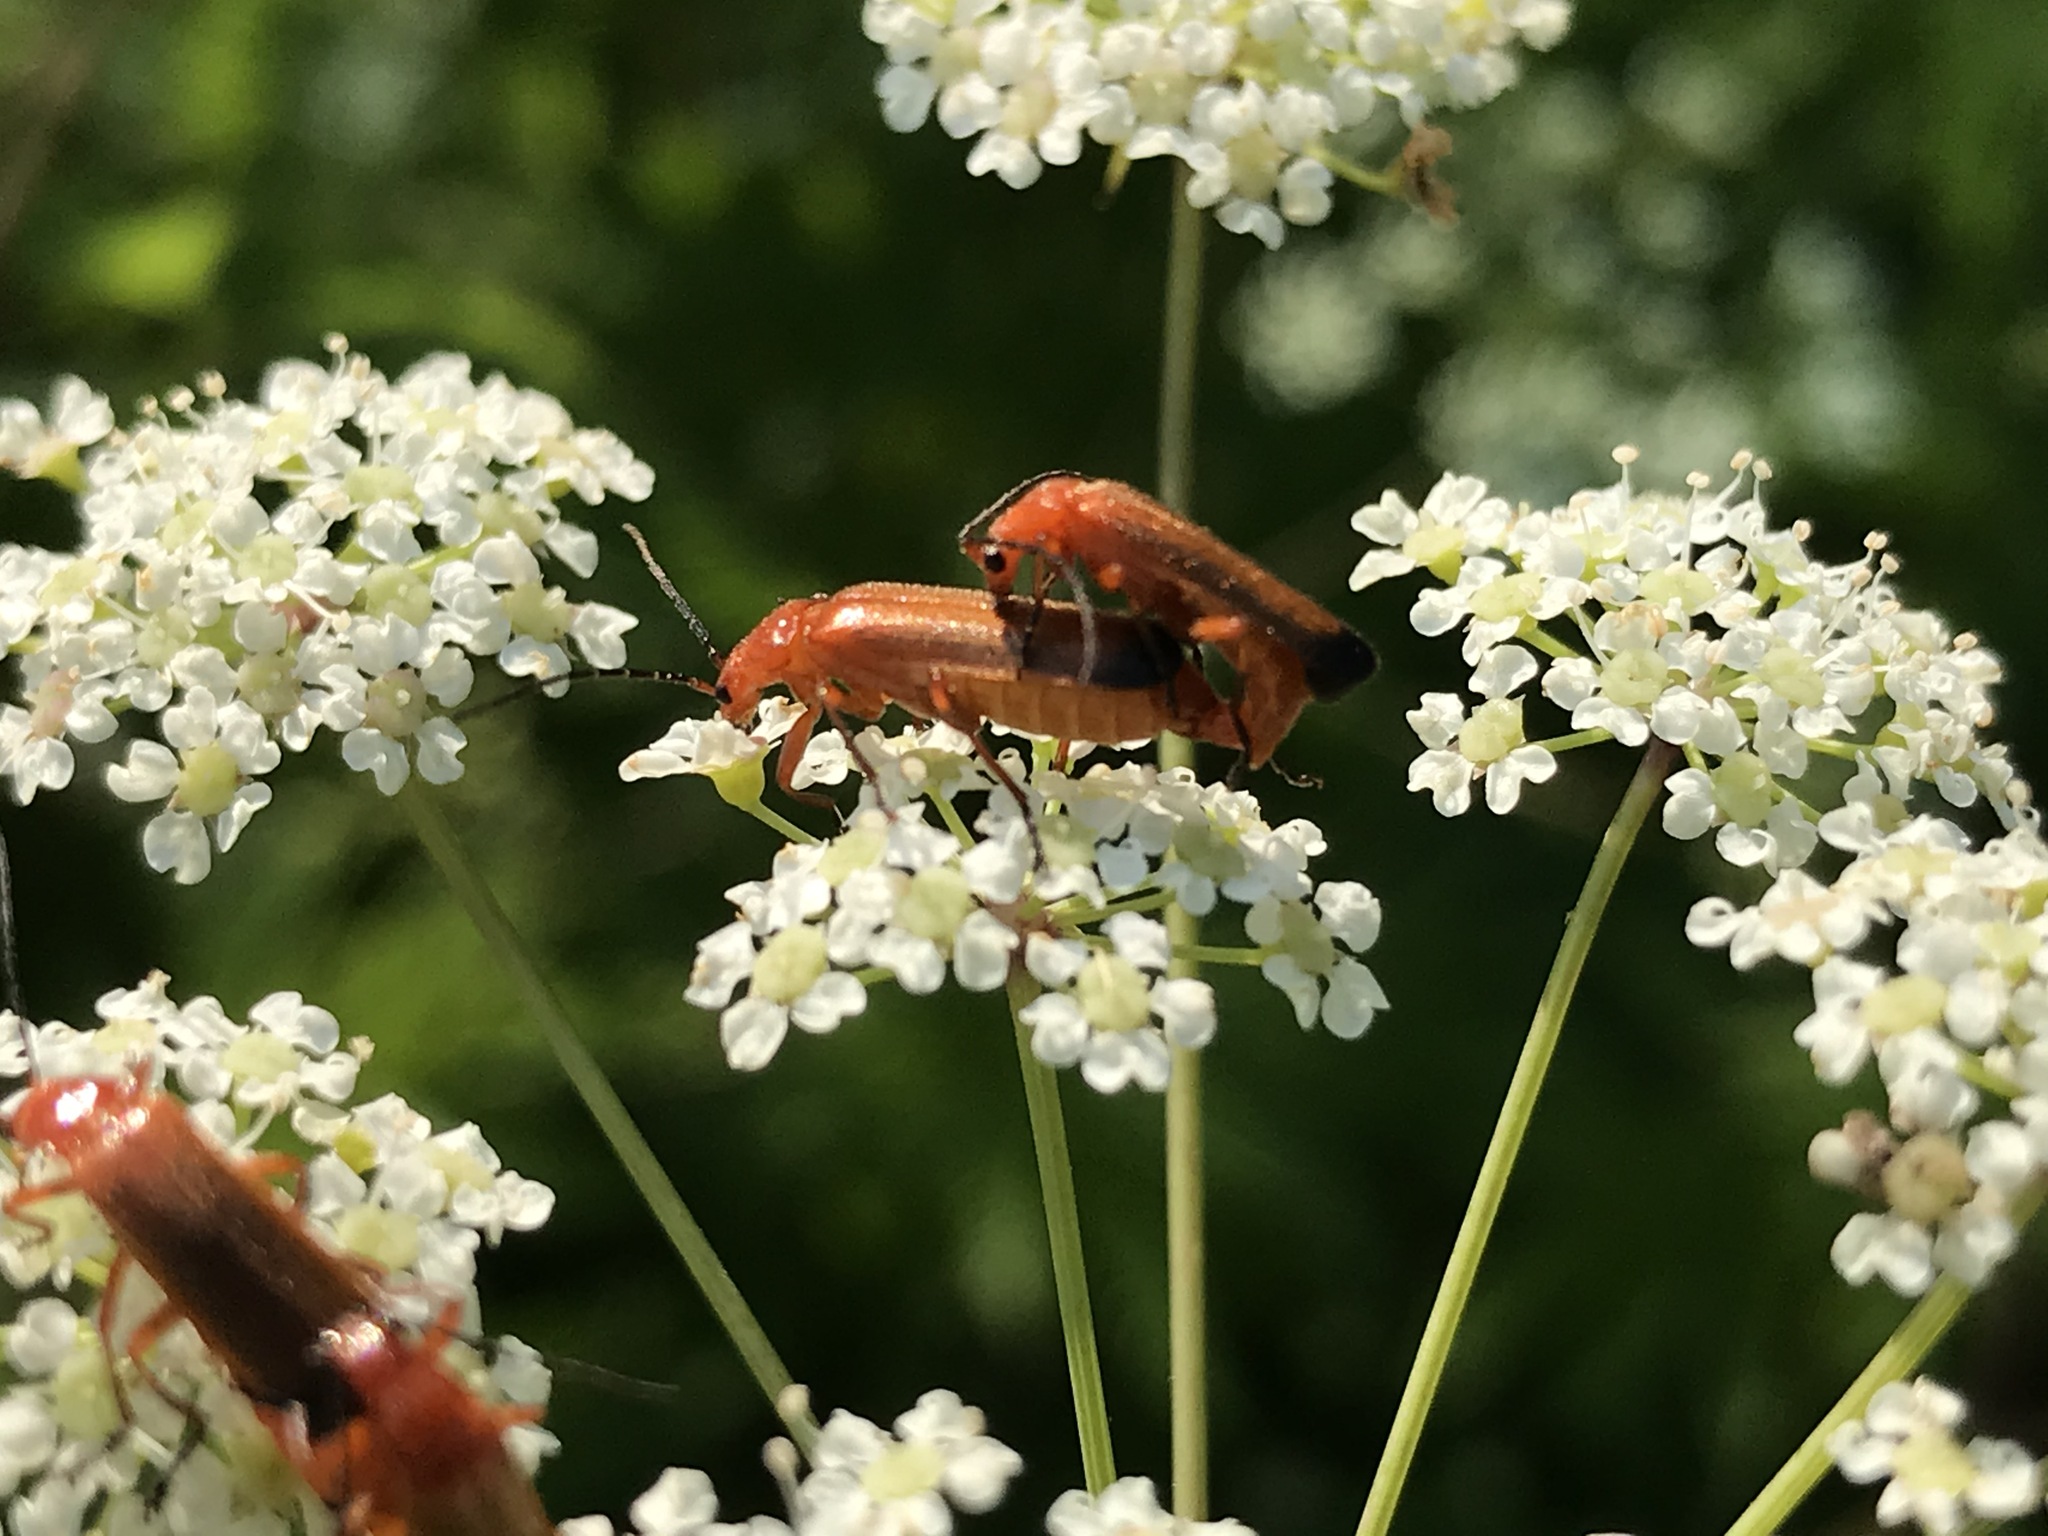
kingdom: Animalia
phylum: Arthropoda
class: Insecta
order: Coleoptera
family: Cantharidae
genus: Rhagonycha
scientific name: Rhagonycha fulva
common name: Common red soldier beetle
